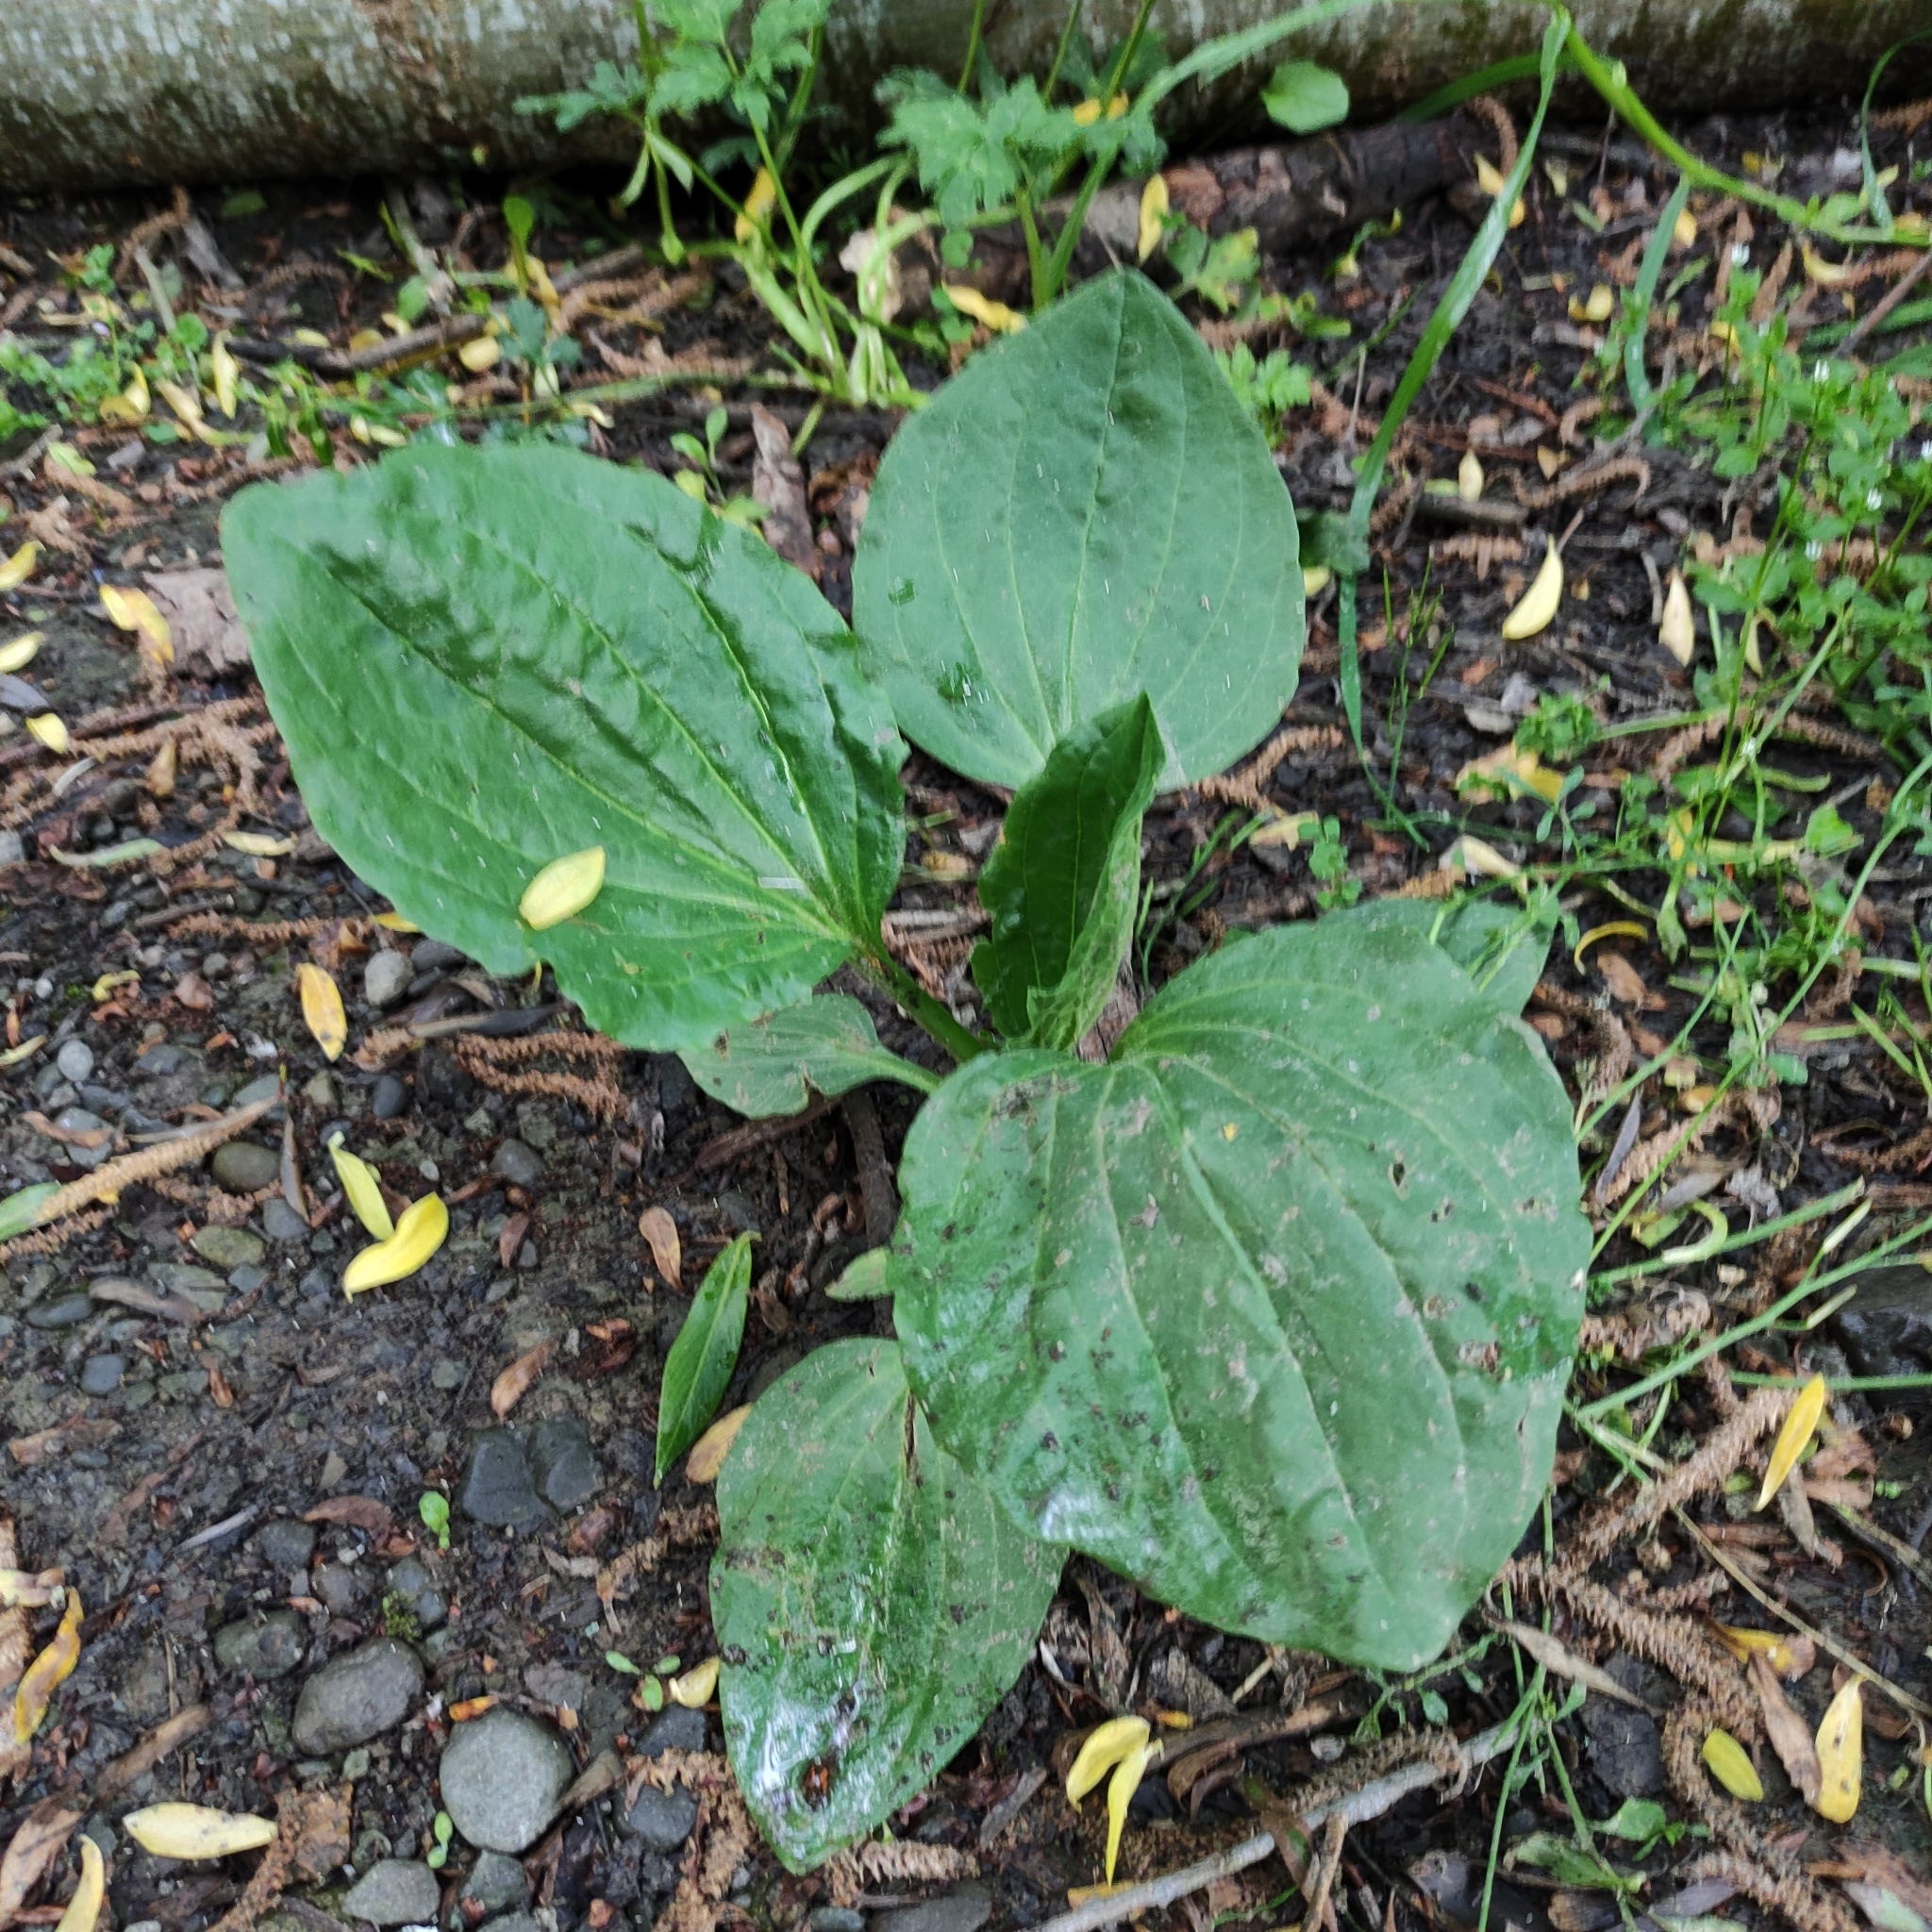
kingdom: Plantae
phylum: Tracheophyta
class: Magnoliopsida
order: Lamiales
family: Plantaginaceae
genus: Plantago
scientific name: Plantago major
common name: Common plantain
